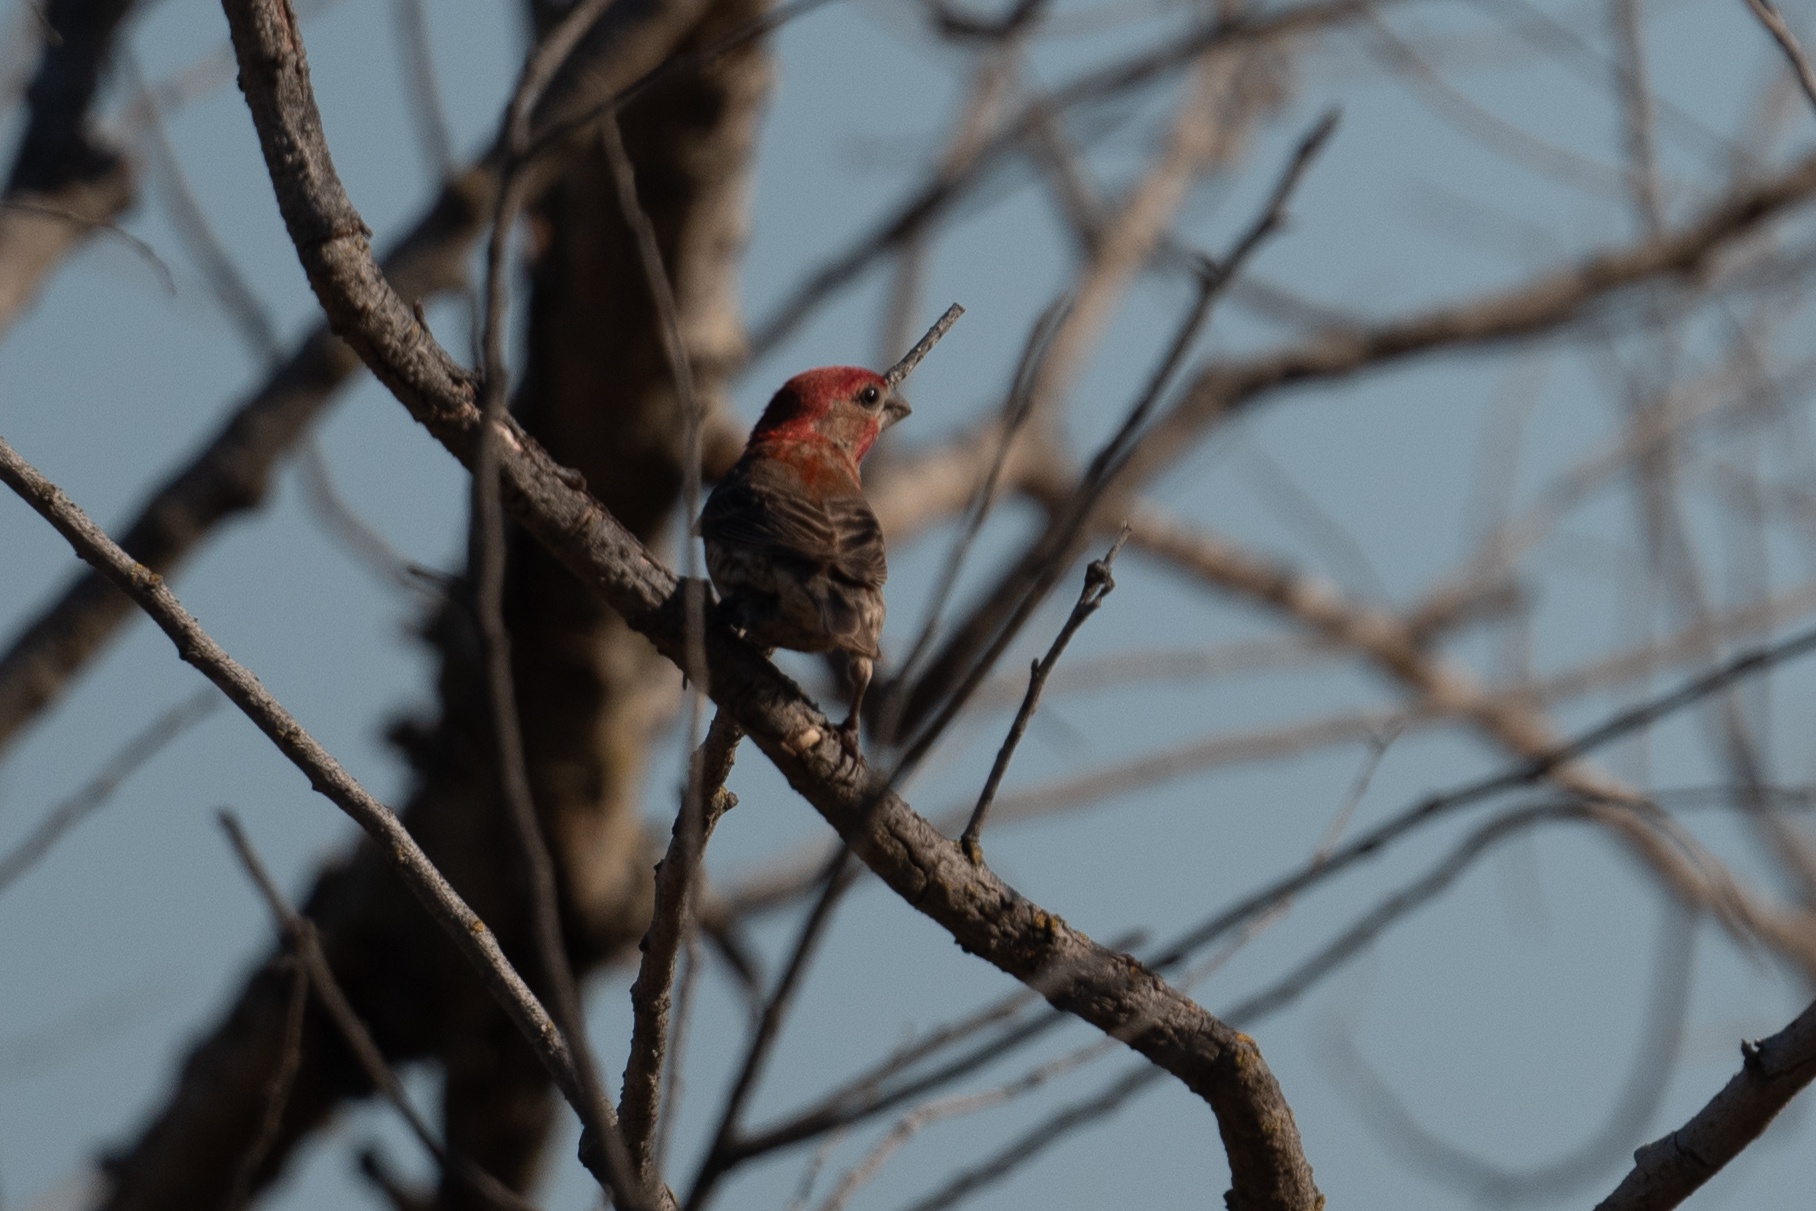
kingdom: Animalia
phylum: Chordata
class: Aves
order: Passeriformes
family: Fringillidae
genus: Haemorhous
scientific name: Haemorhous mexicanus
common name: House finch
